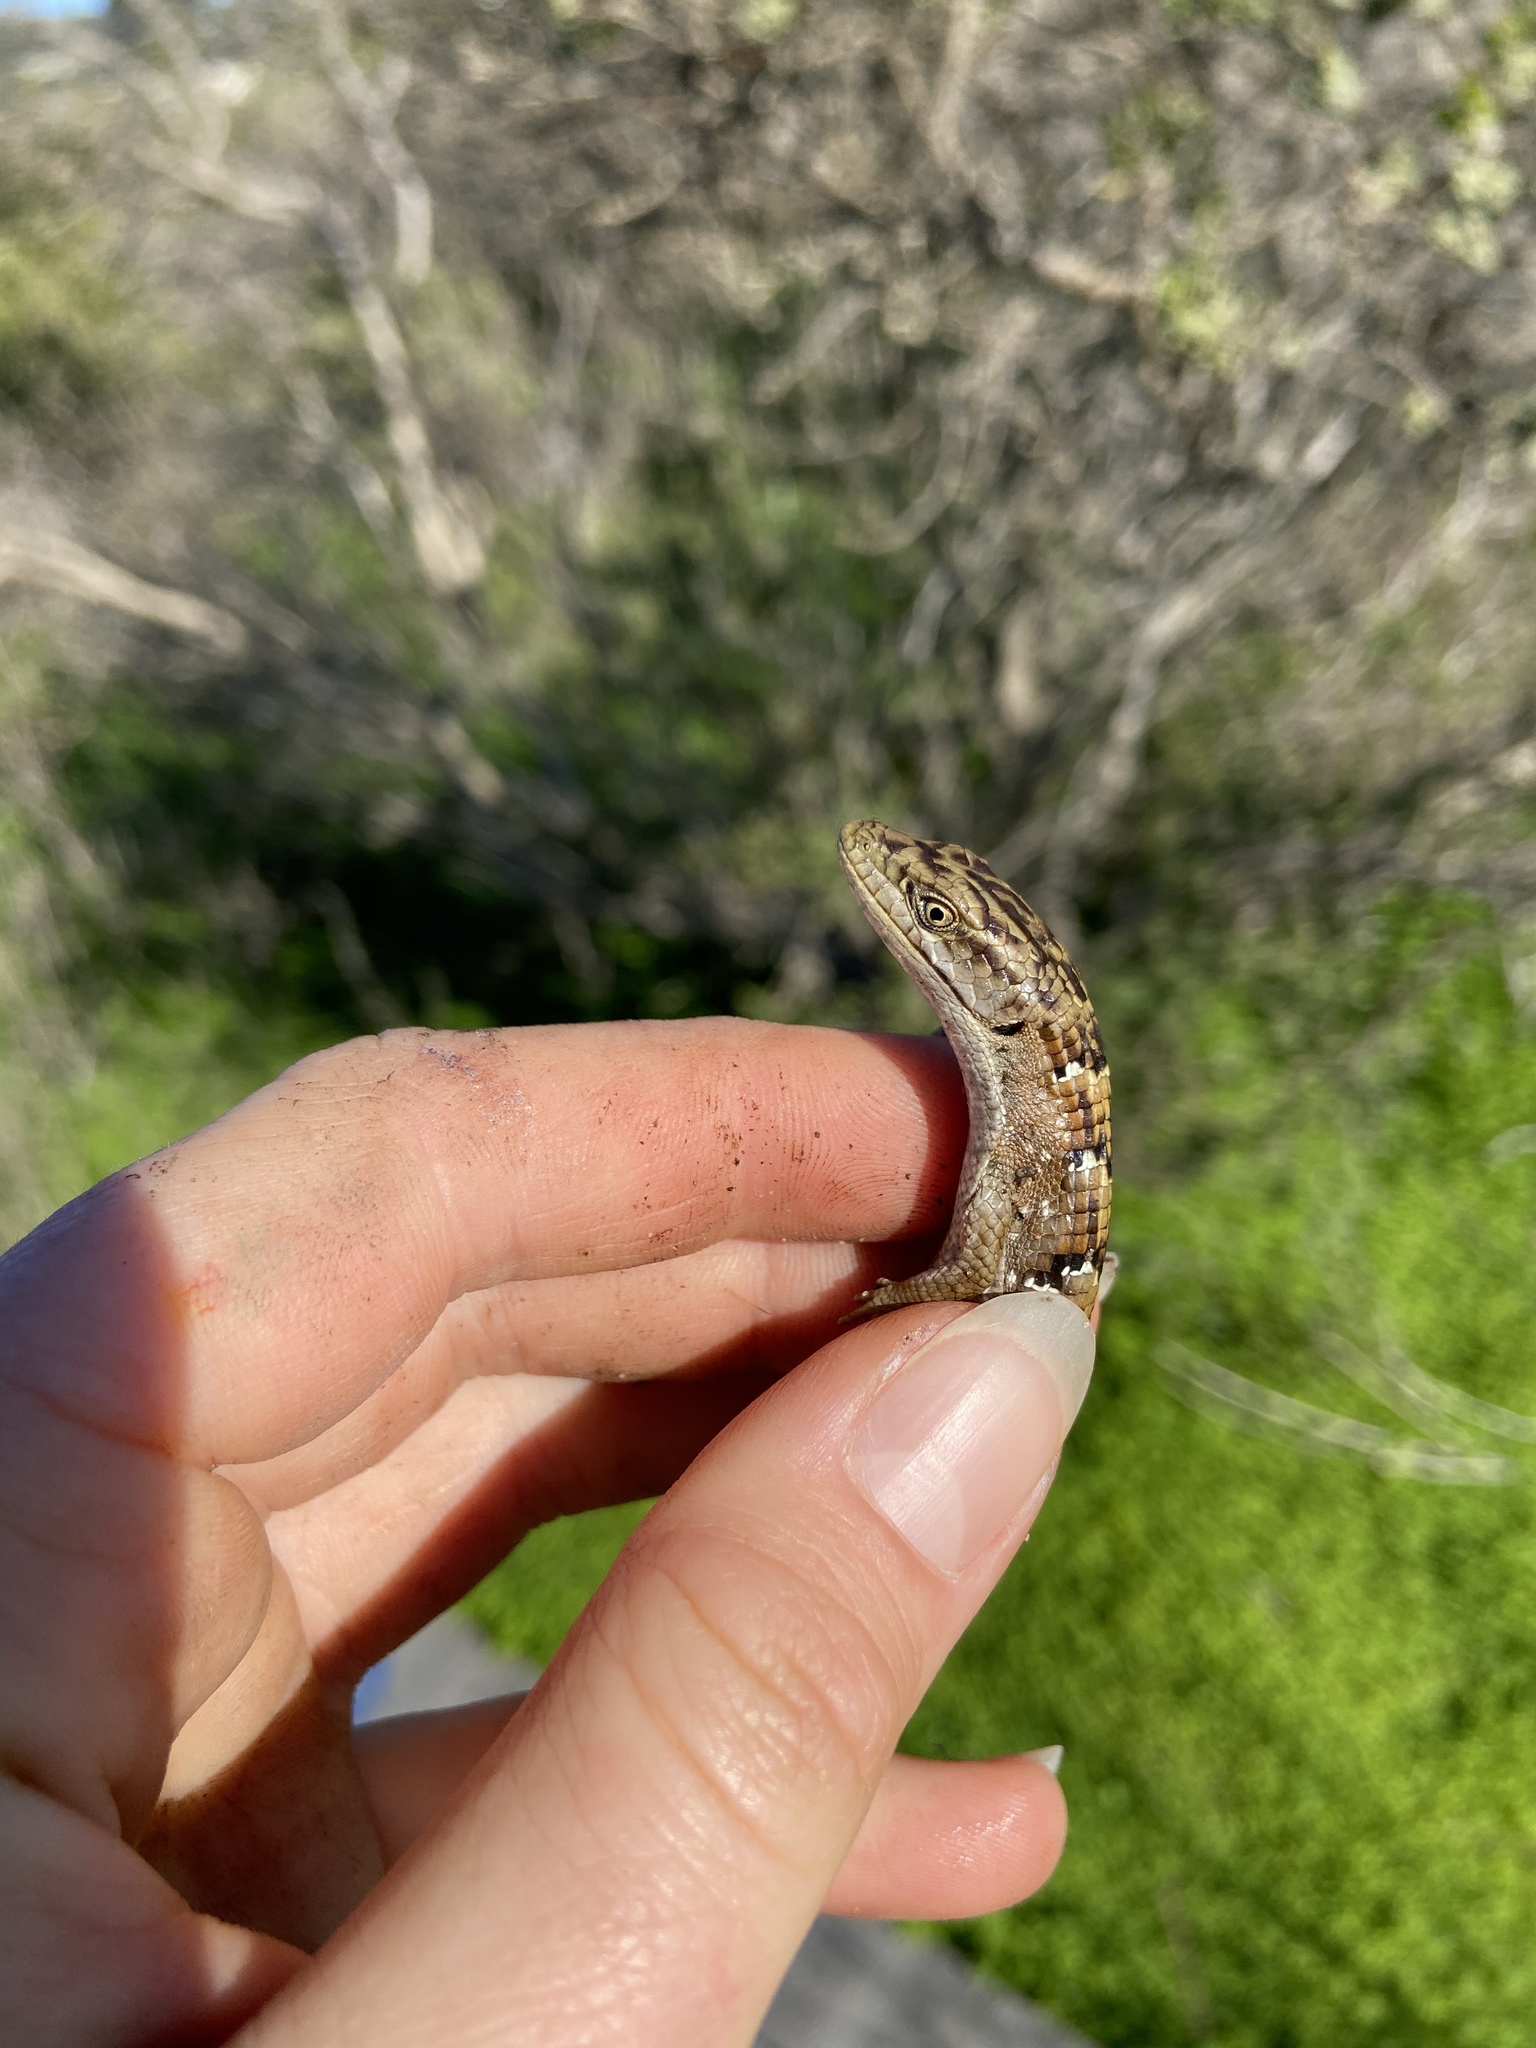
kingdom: Animalia
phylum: Chordata
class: Squamata
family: Anguidae
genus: Elgaria
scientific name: Elgaria multicarinata
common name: Southern alligator lizard
